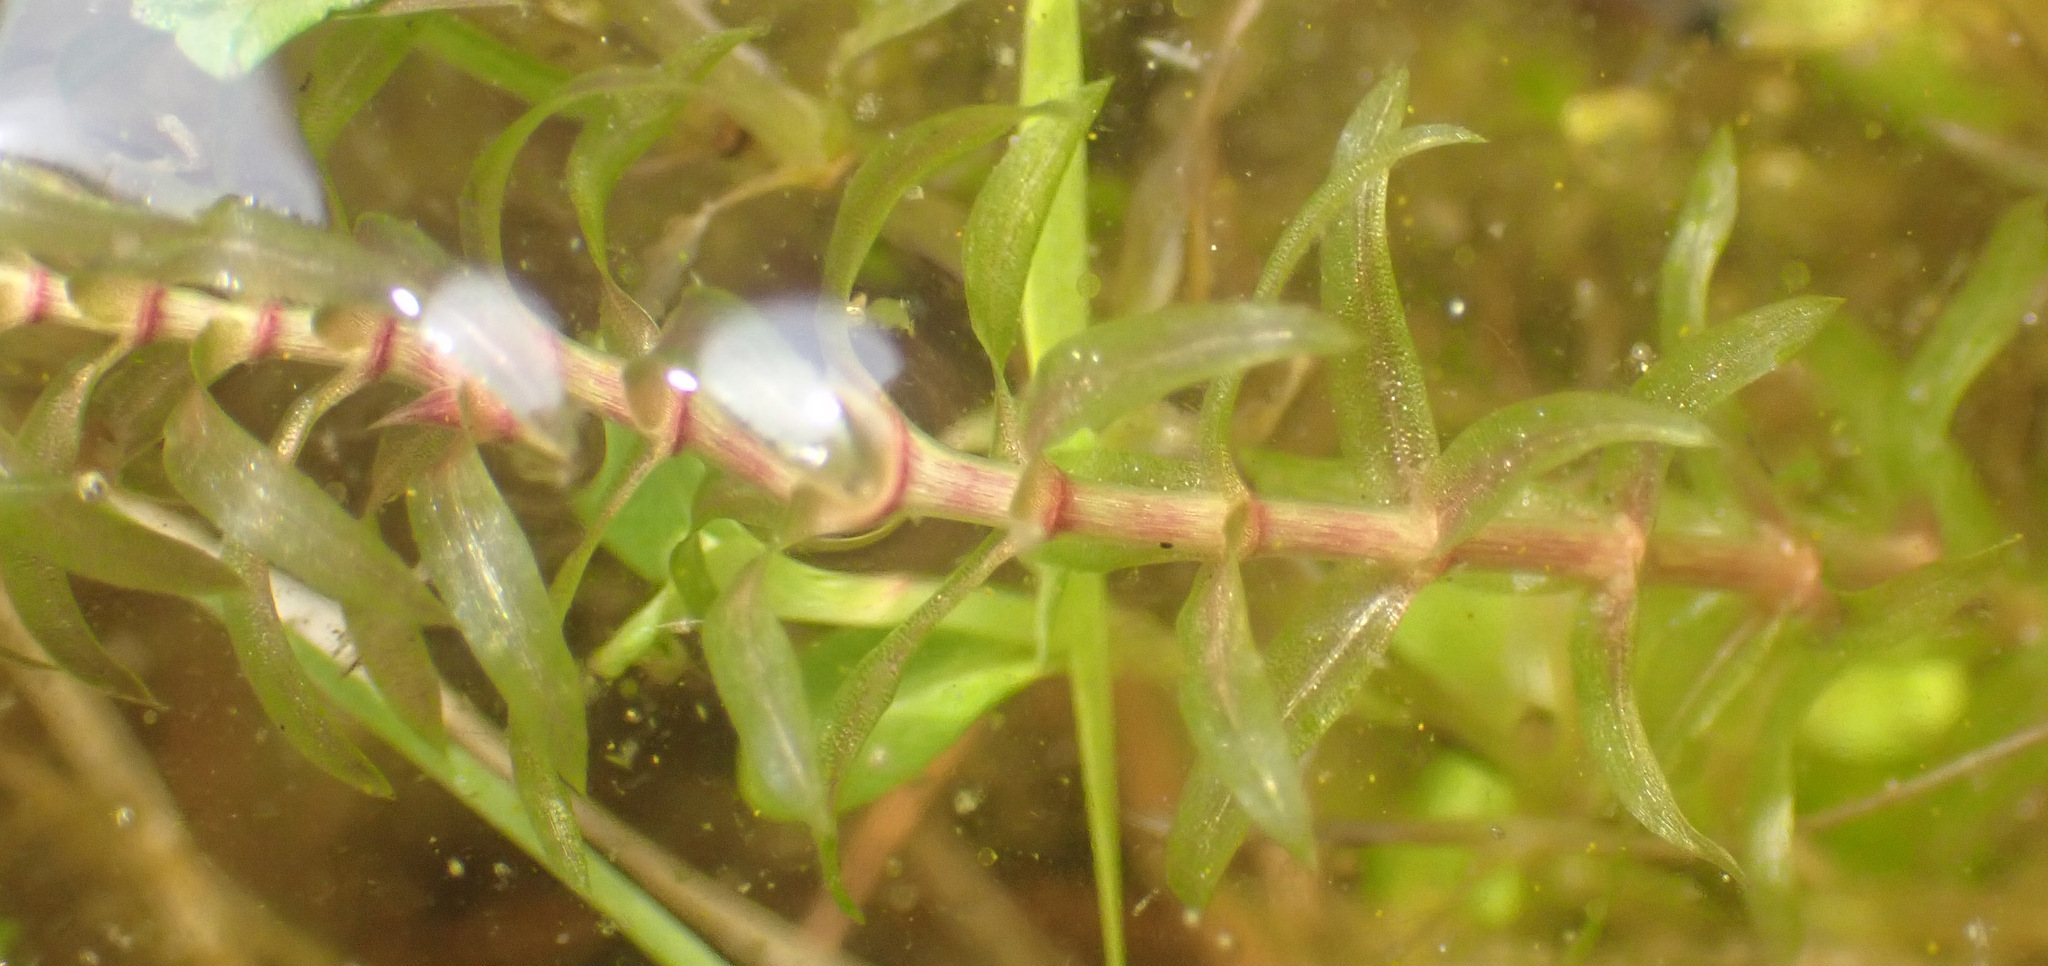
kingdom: Plantae
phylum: Tracheophyta
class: Liliopsida
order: Alismatales
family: Hydrocharitaceae
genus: Elodea
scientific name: Elodea canadensis
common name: Canadian waterweed
